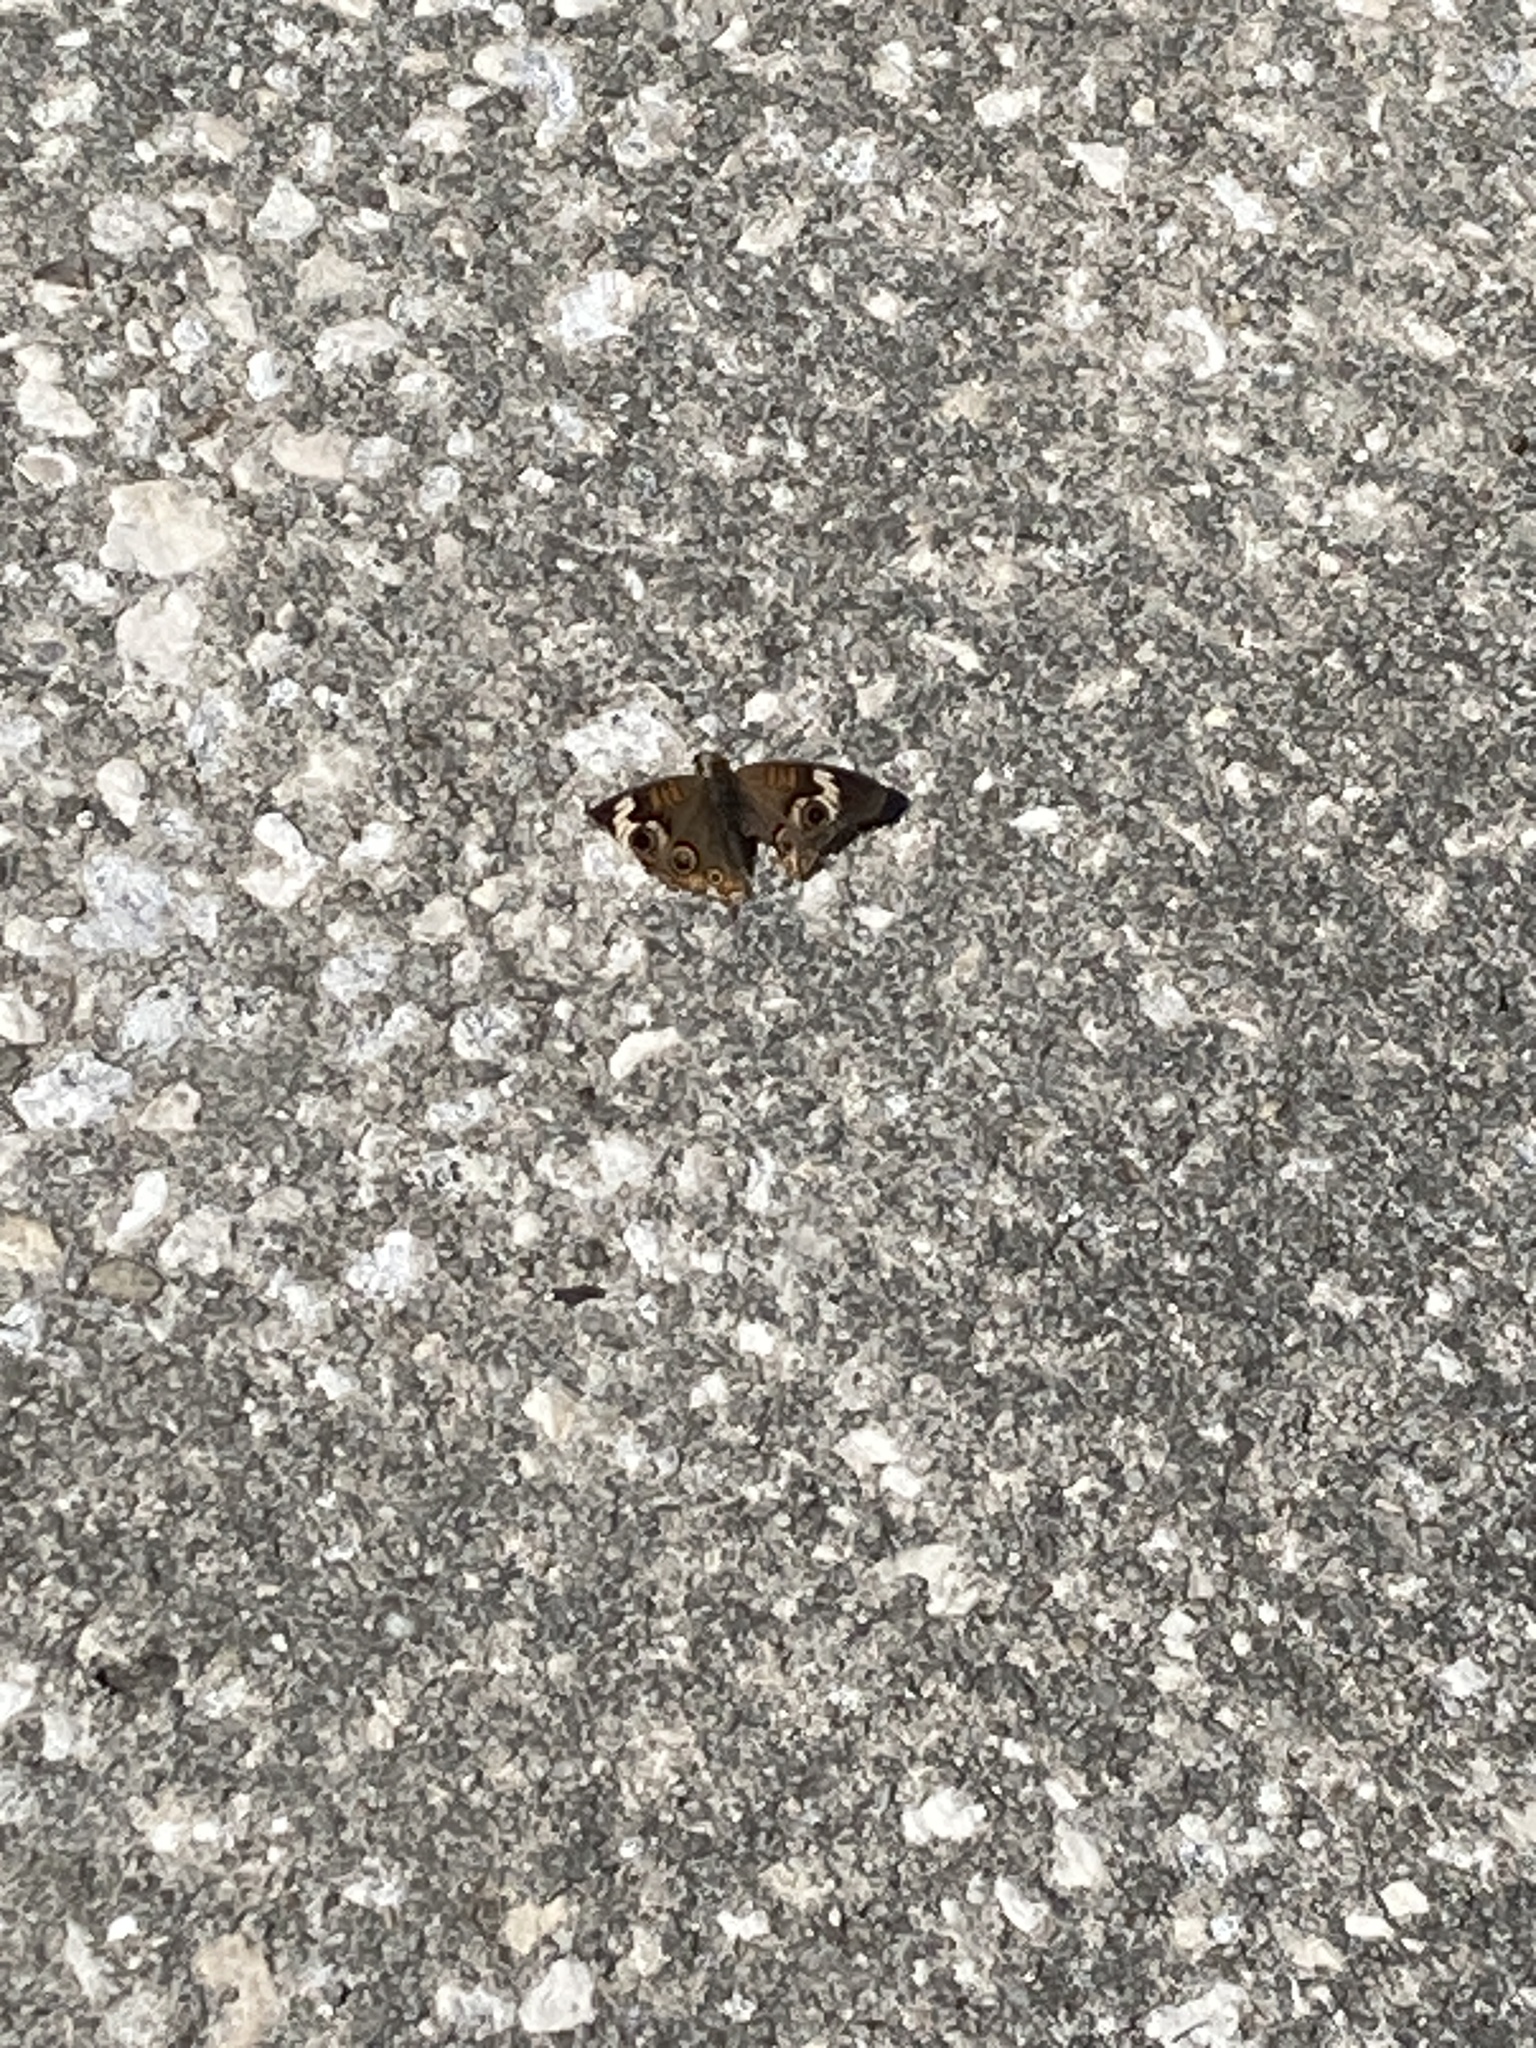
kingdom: Animalia
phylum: Arthropoda
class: Insecta
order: Lepidoptera
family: Nymphalidae
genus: Junonia
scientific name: Junonia coenia
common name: Common buckeye
